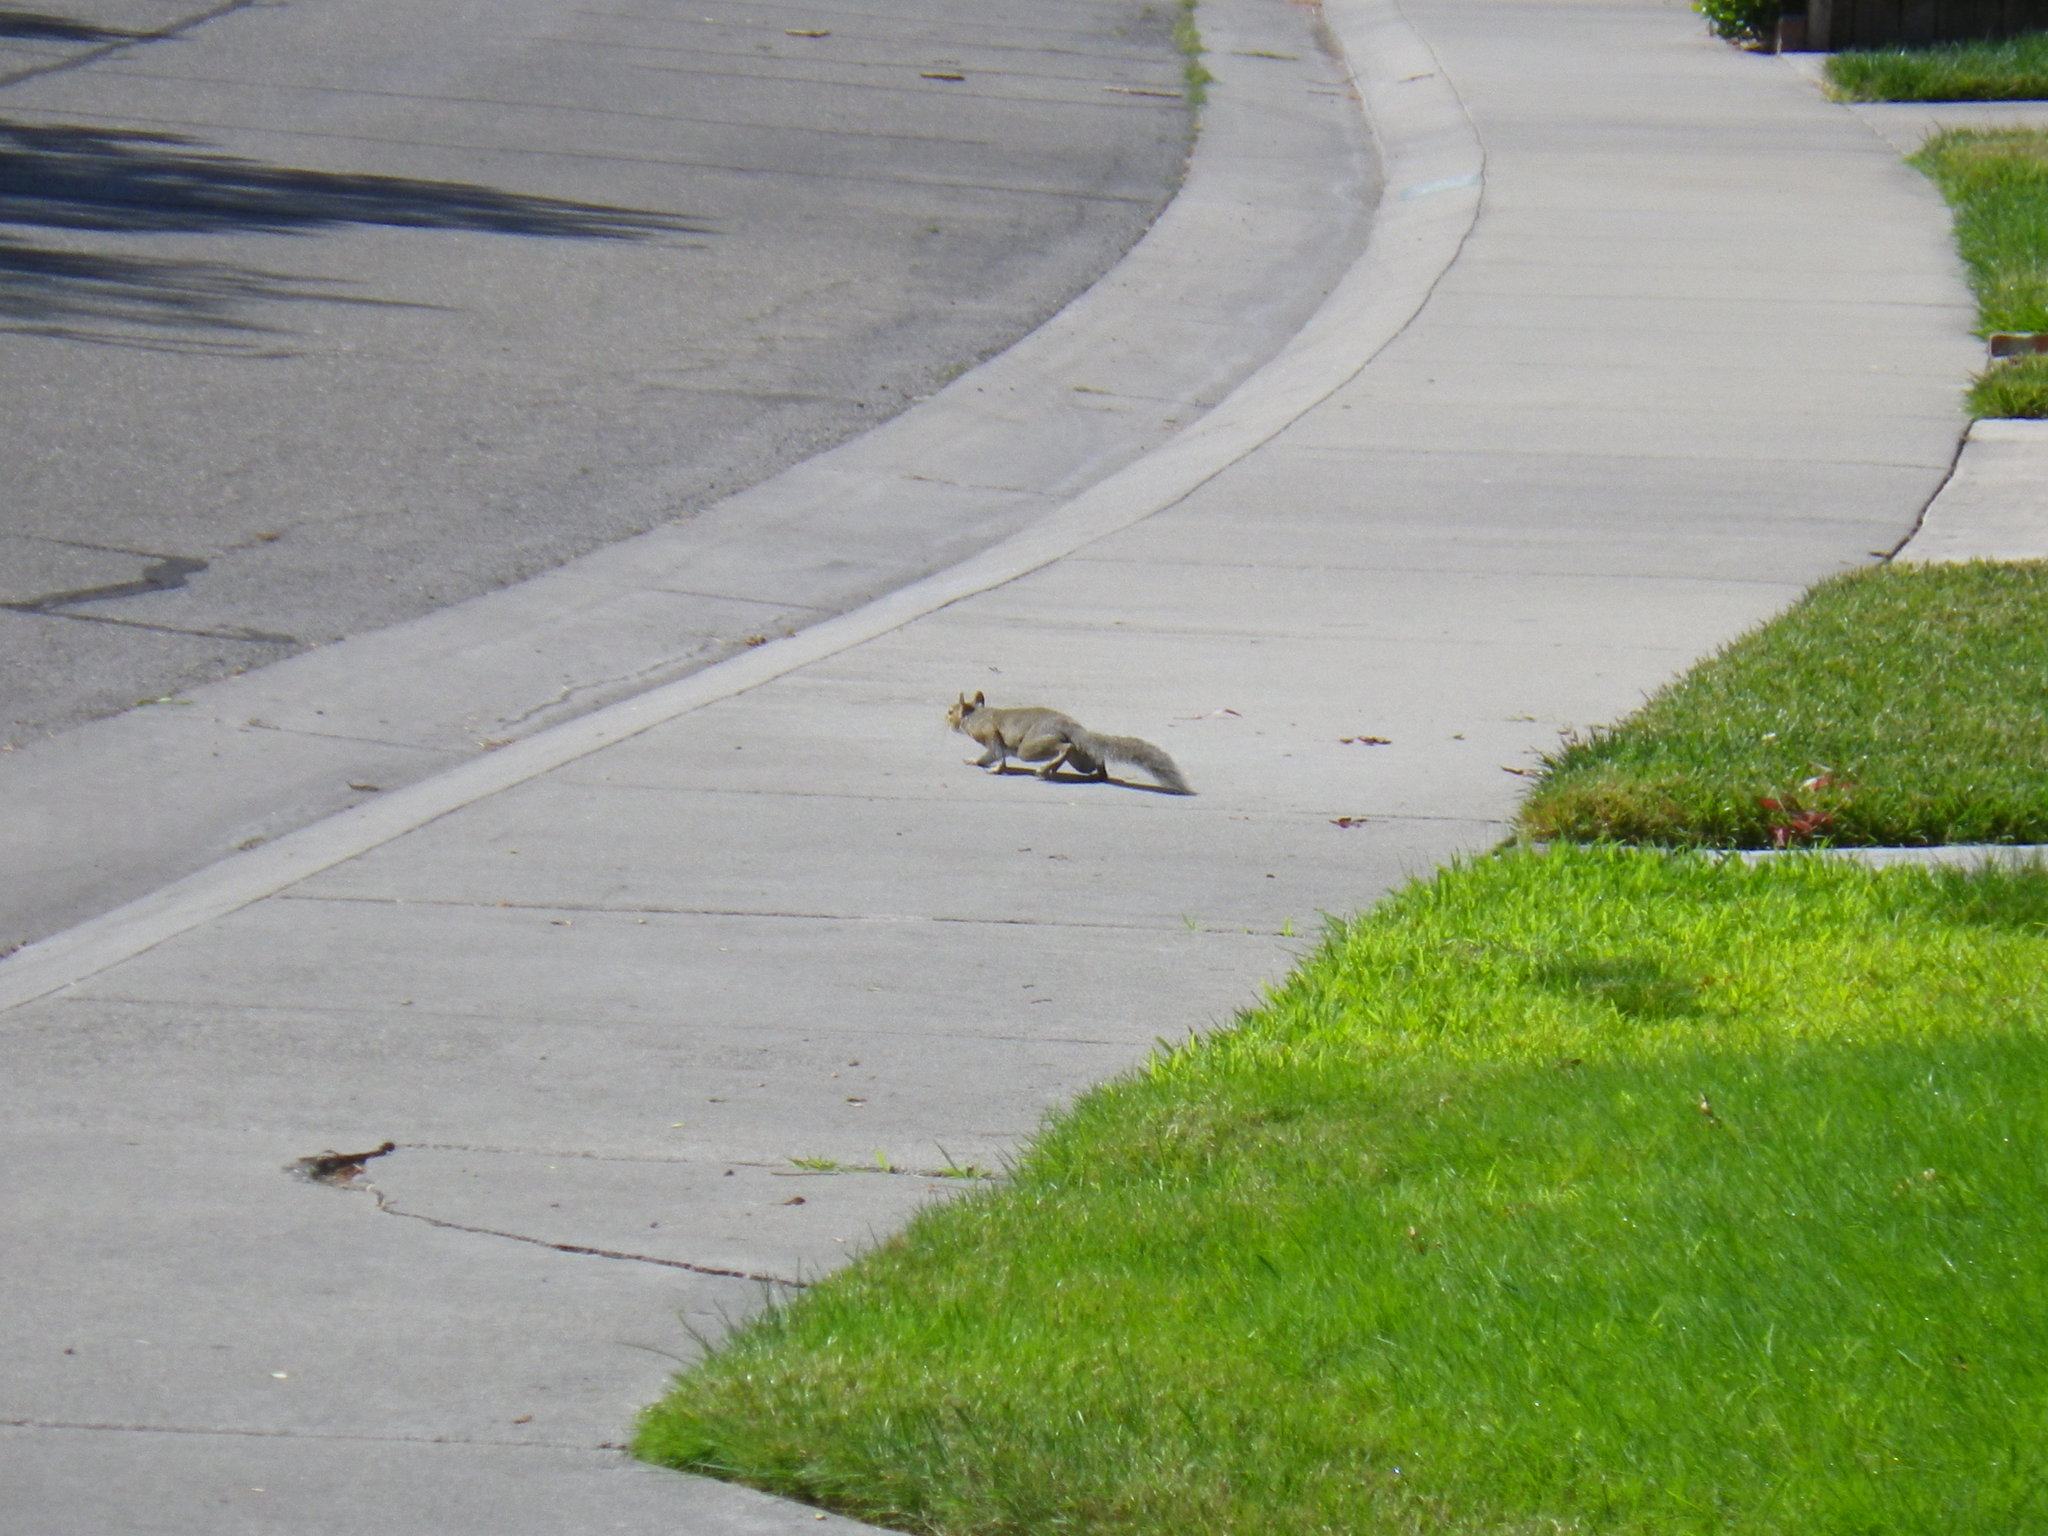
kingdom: Animalia
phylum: Chordata
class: Mammalia
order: Rodentia
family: Sciuridae
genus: Sciurus
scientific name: Sciurus carolinensis
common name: Eastern gray squirrel
